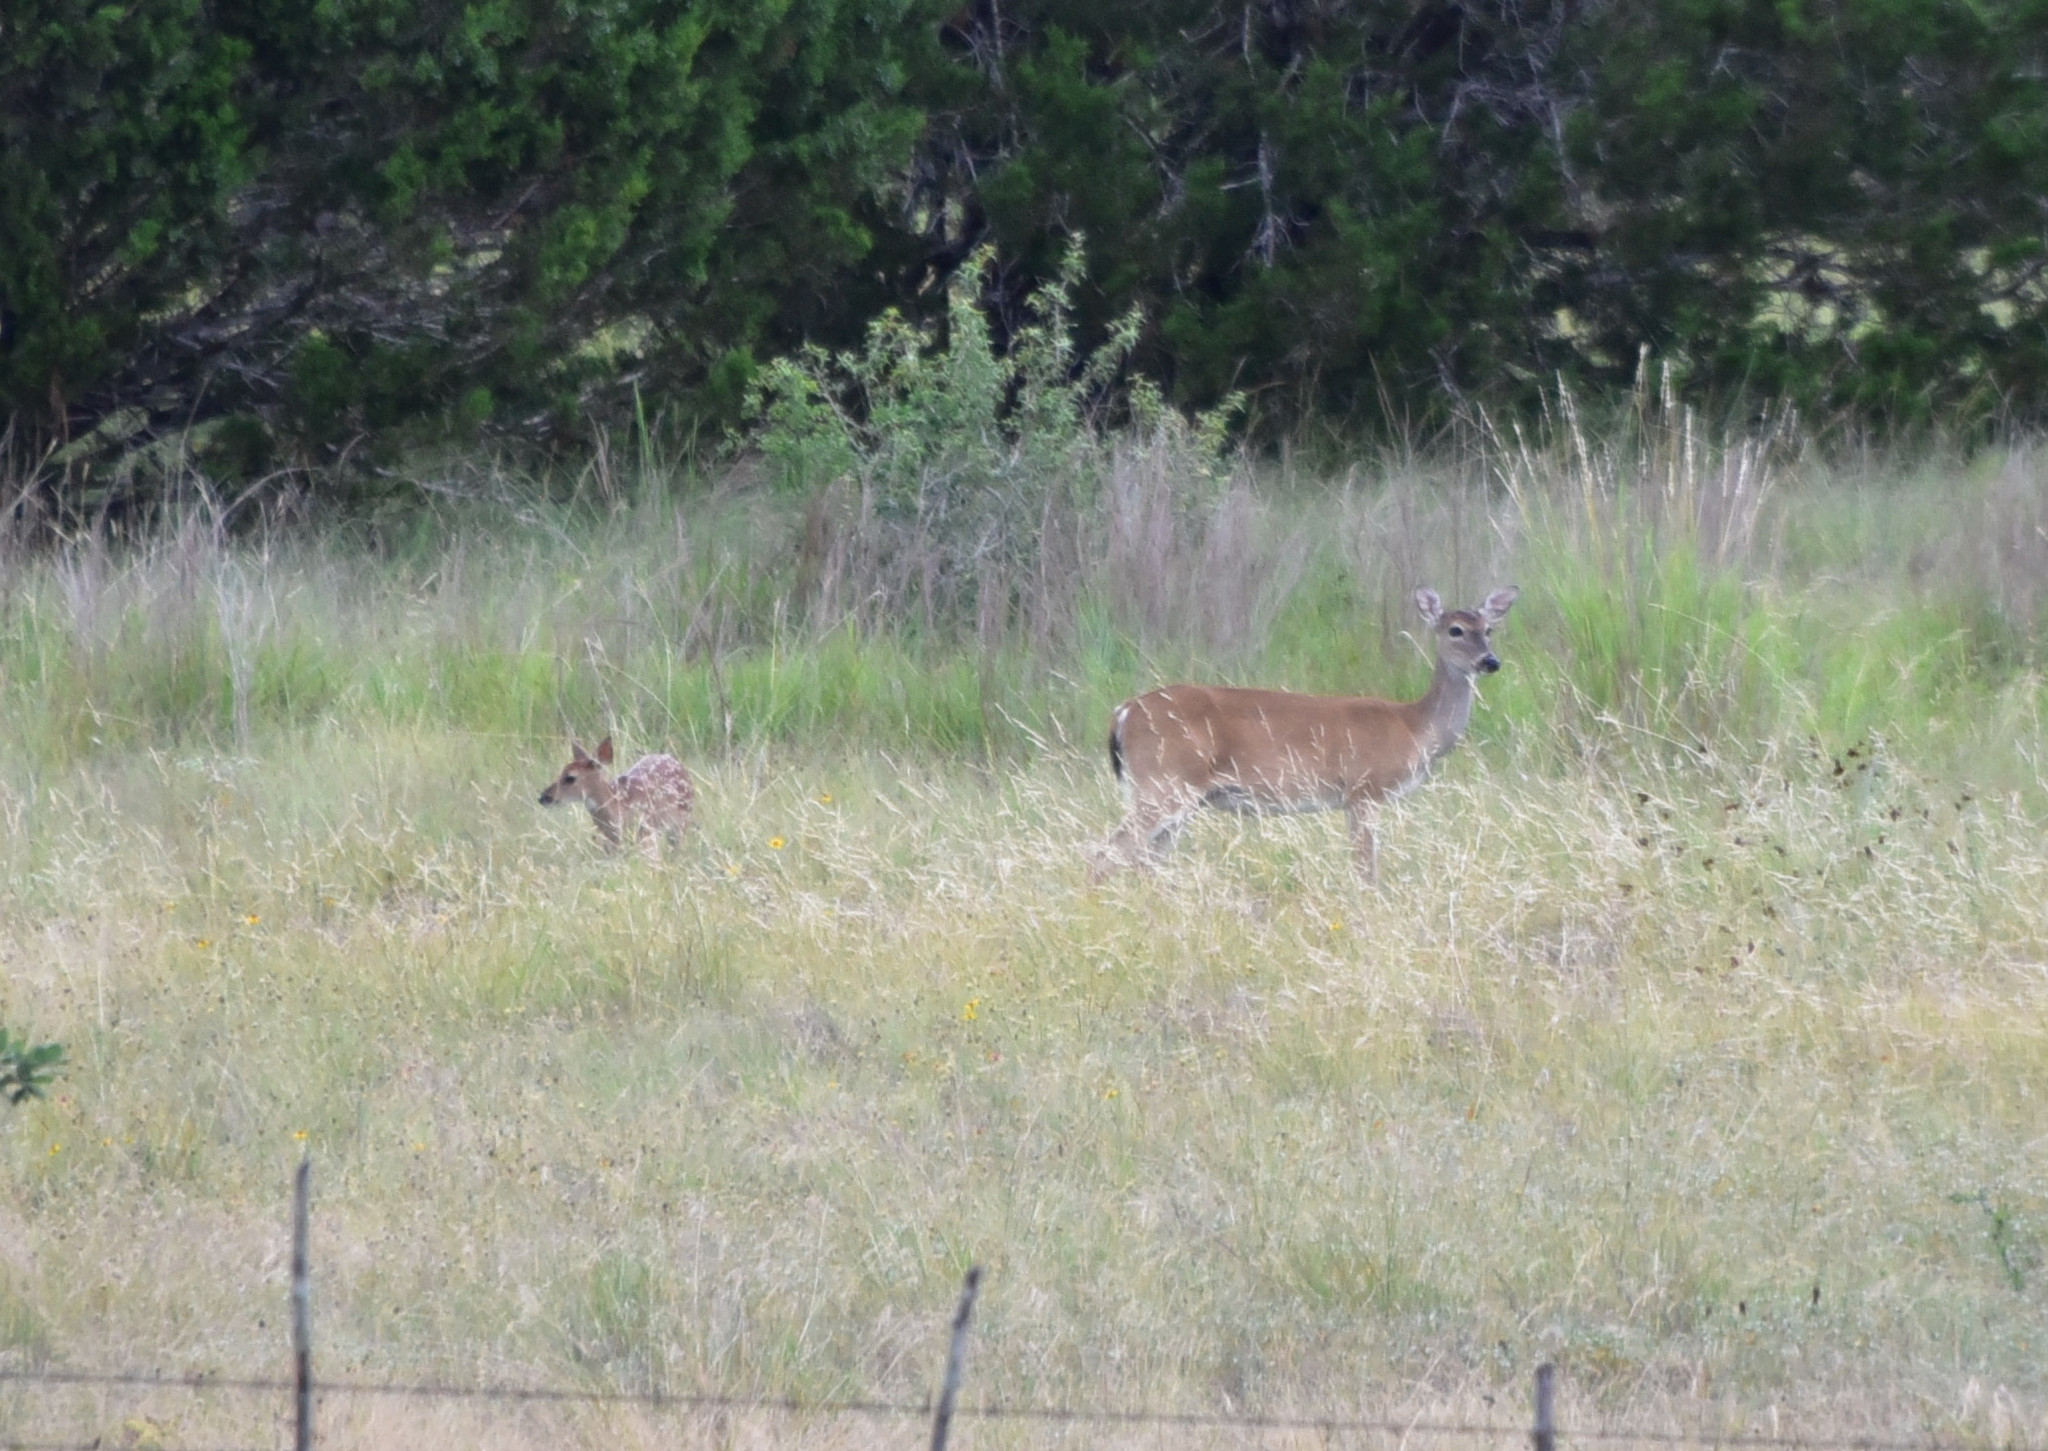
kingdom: Animalia
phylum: Chordata
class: Mammalia
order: Artiodactyla
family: Cervidae
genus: Odocoileus
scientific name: Odocoileus virginianus
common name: White-tailed deer
